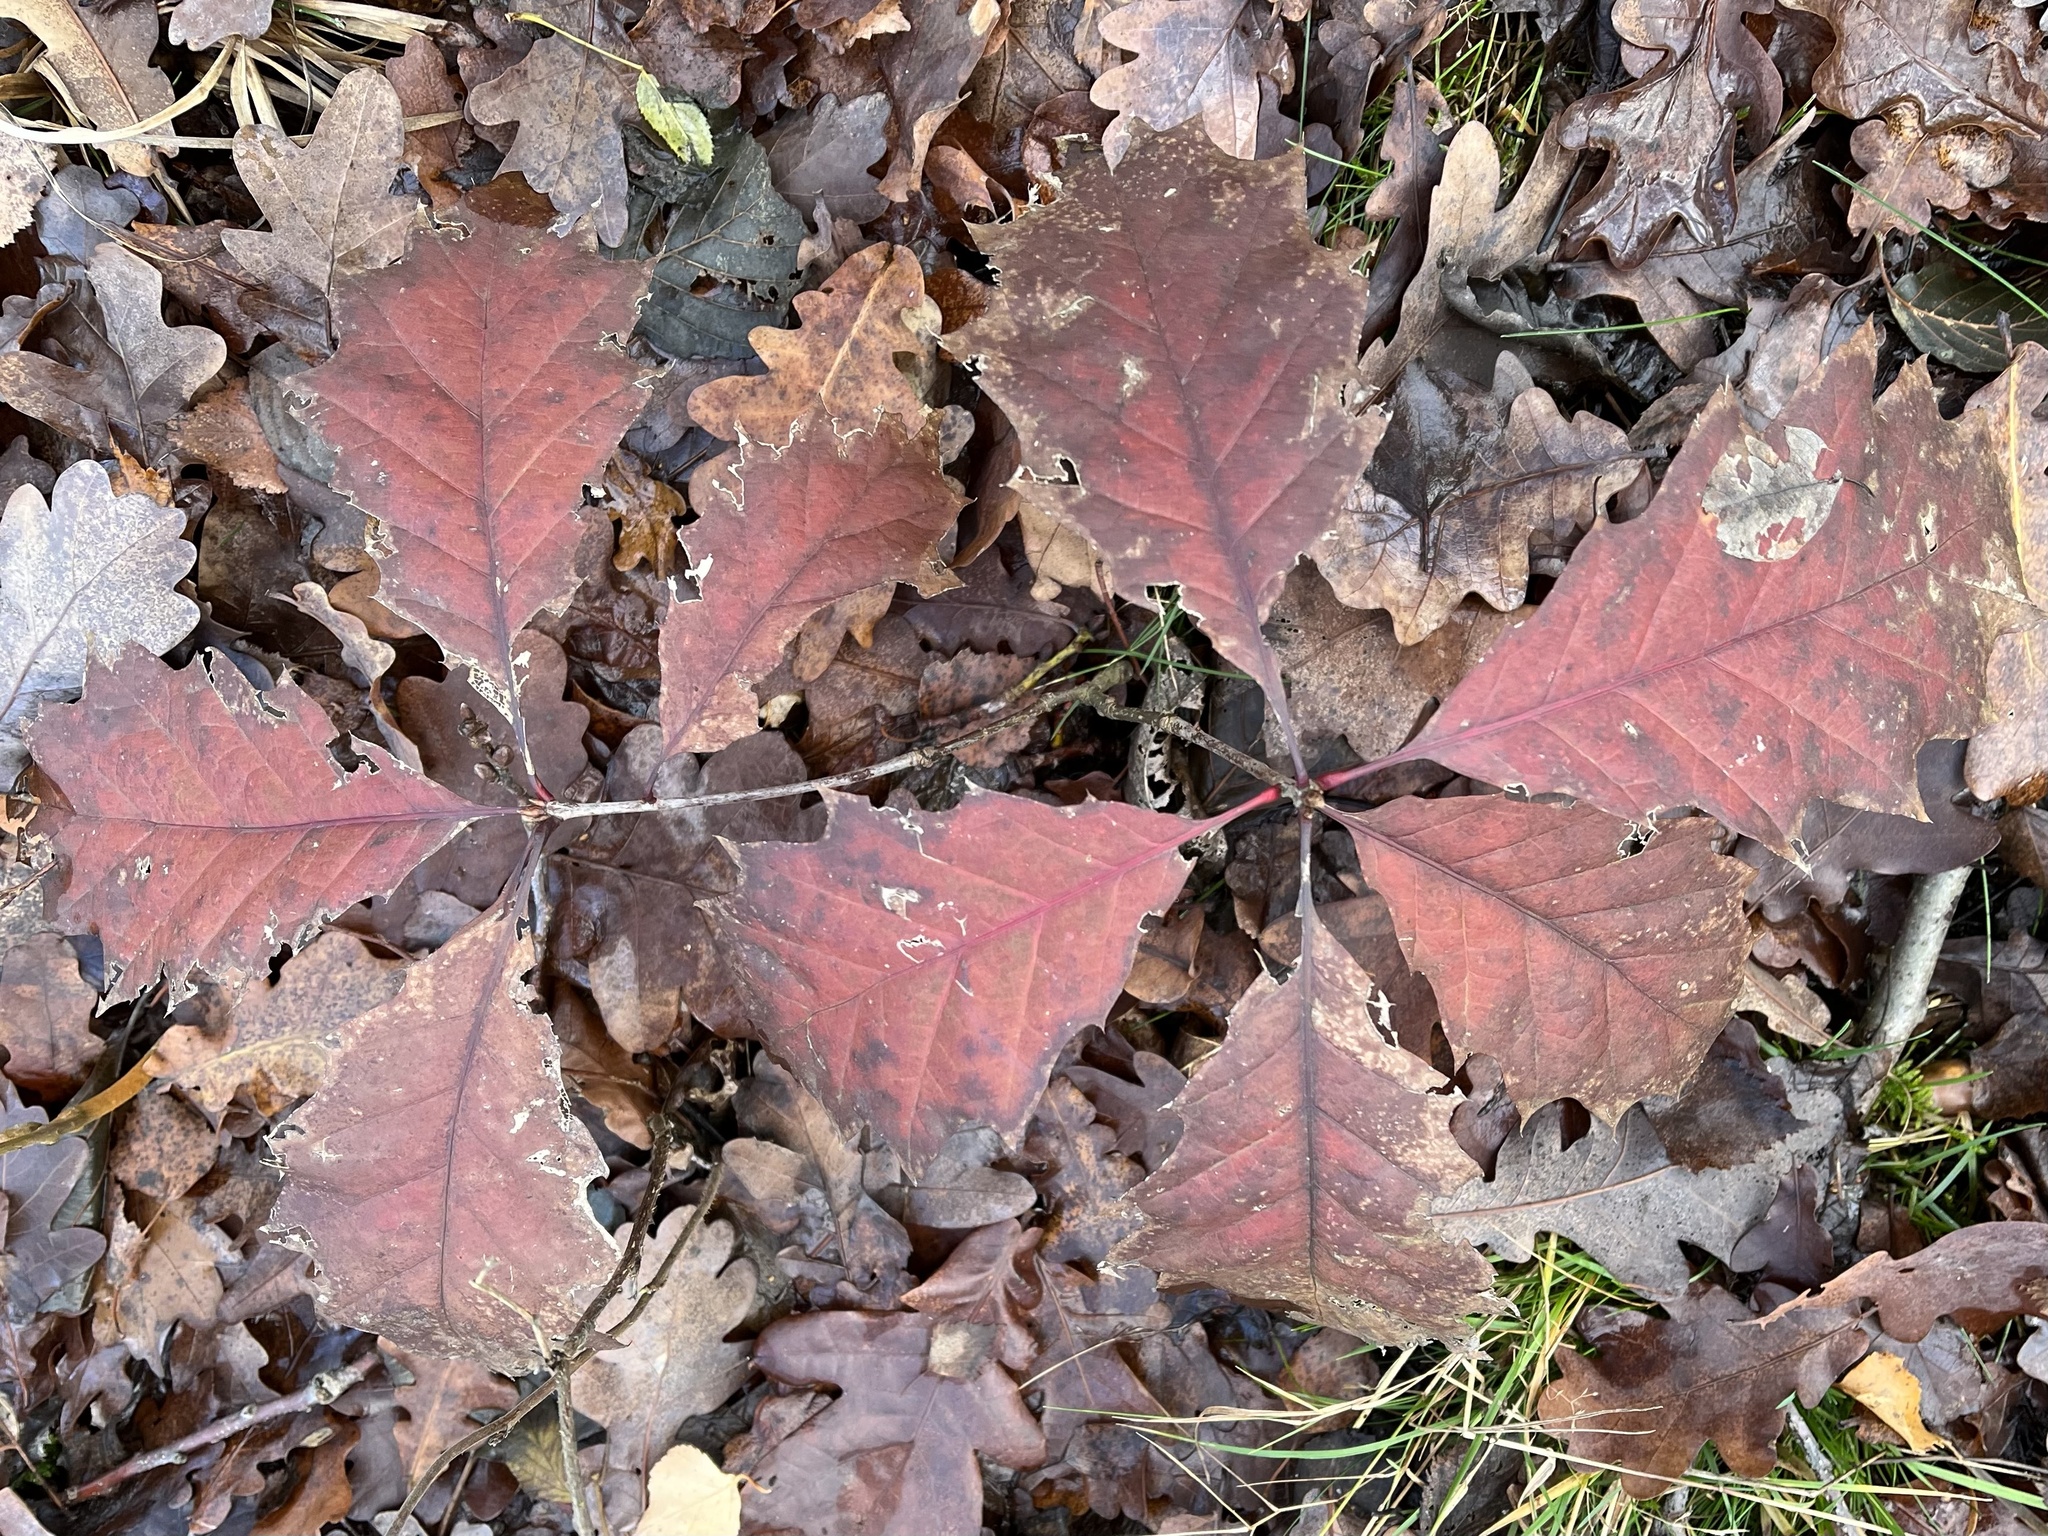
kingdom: Plantae
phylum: Tracheophyta
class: Magnoliopsida
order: Fagales
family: Fagaceae
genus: Quercus
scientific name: Quercus rubra
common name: Red oak
